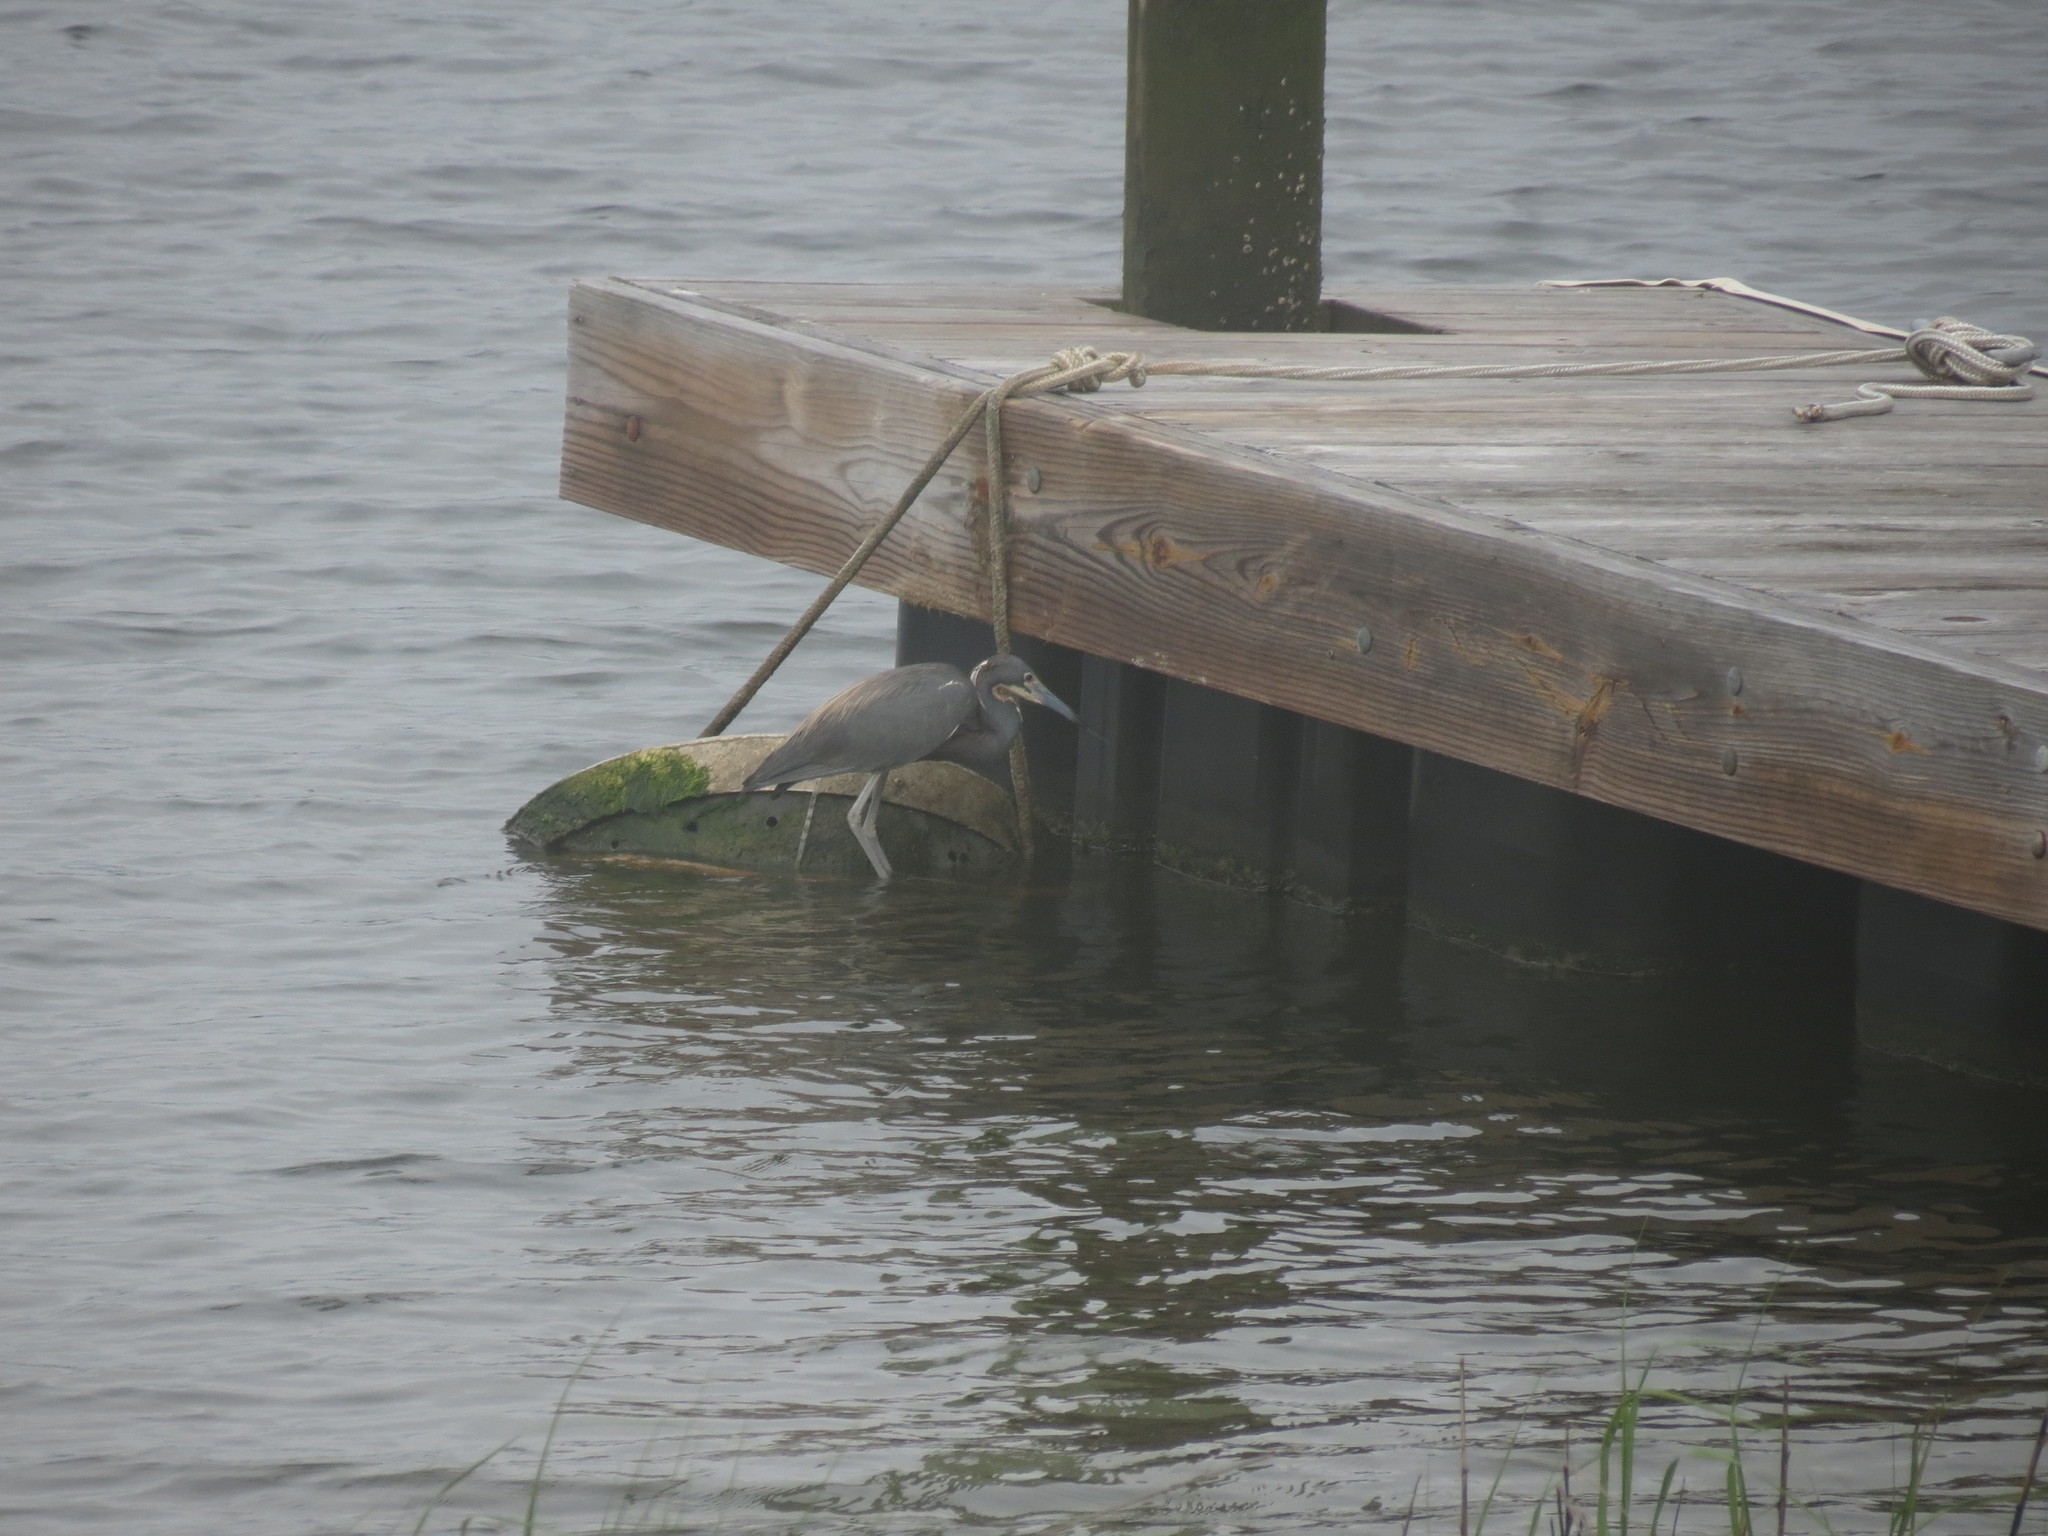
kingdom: Animalia
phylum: Chordata
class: Aves
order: Pelecaniformes
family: Ardeidae
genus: Egretta
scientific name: Egretta tricolor
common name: Tricolored heron
